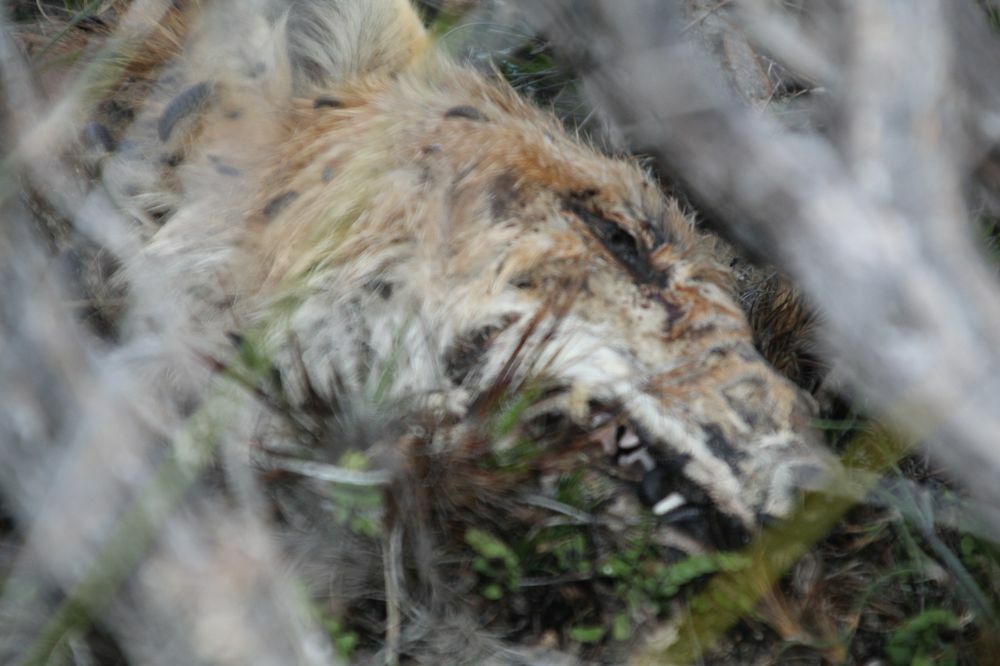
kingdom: Animalia
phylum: Chordata
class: Mammalia
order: Carnivora
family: Canidae
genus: Vulpes
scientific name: Vulpes vulpes
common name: Red fox
